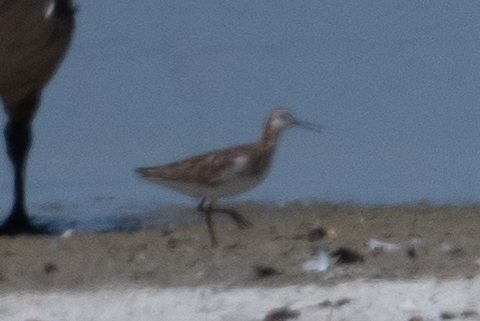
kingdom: Animalia
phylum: Chordata
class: Aves
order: Charadriiformes
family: Scolopacidae
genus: Phalaropus
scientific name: Phalaropus tricolor
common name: Wilson's phalarope
